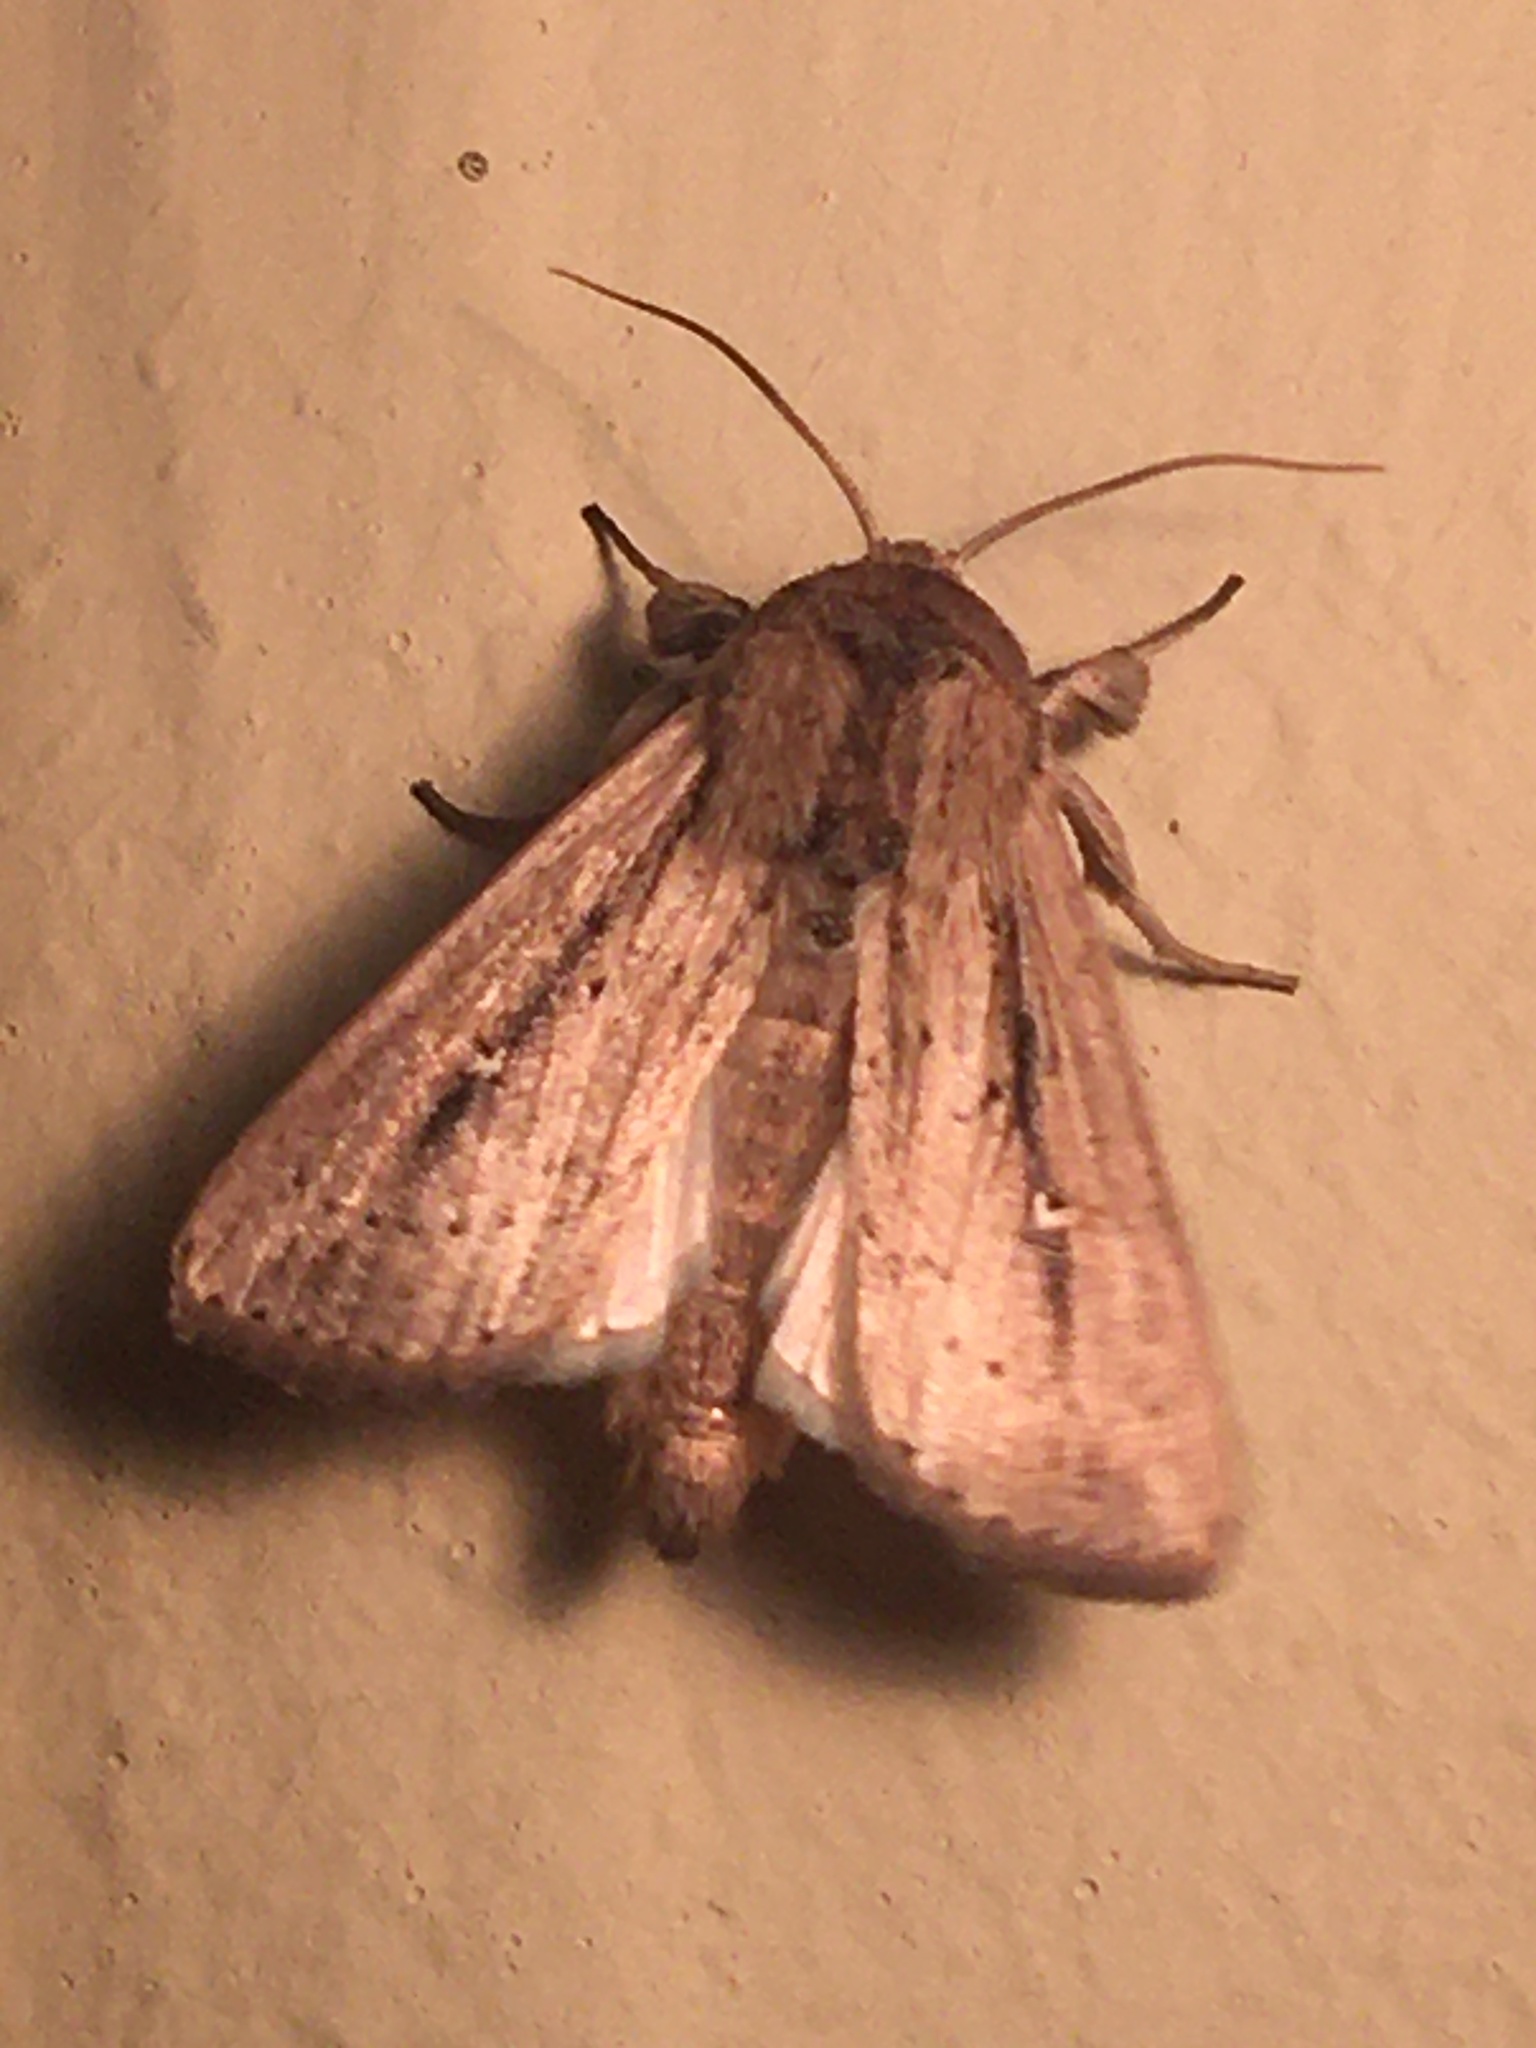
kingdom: Animalia
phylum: Arthropoda
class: Insecta
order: Lepidoptera
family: Noctuidae
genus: Leucania
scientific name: Leucania incognita
